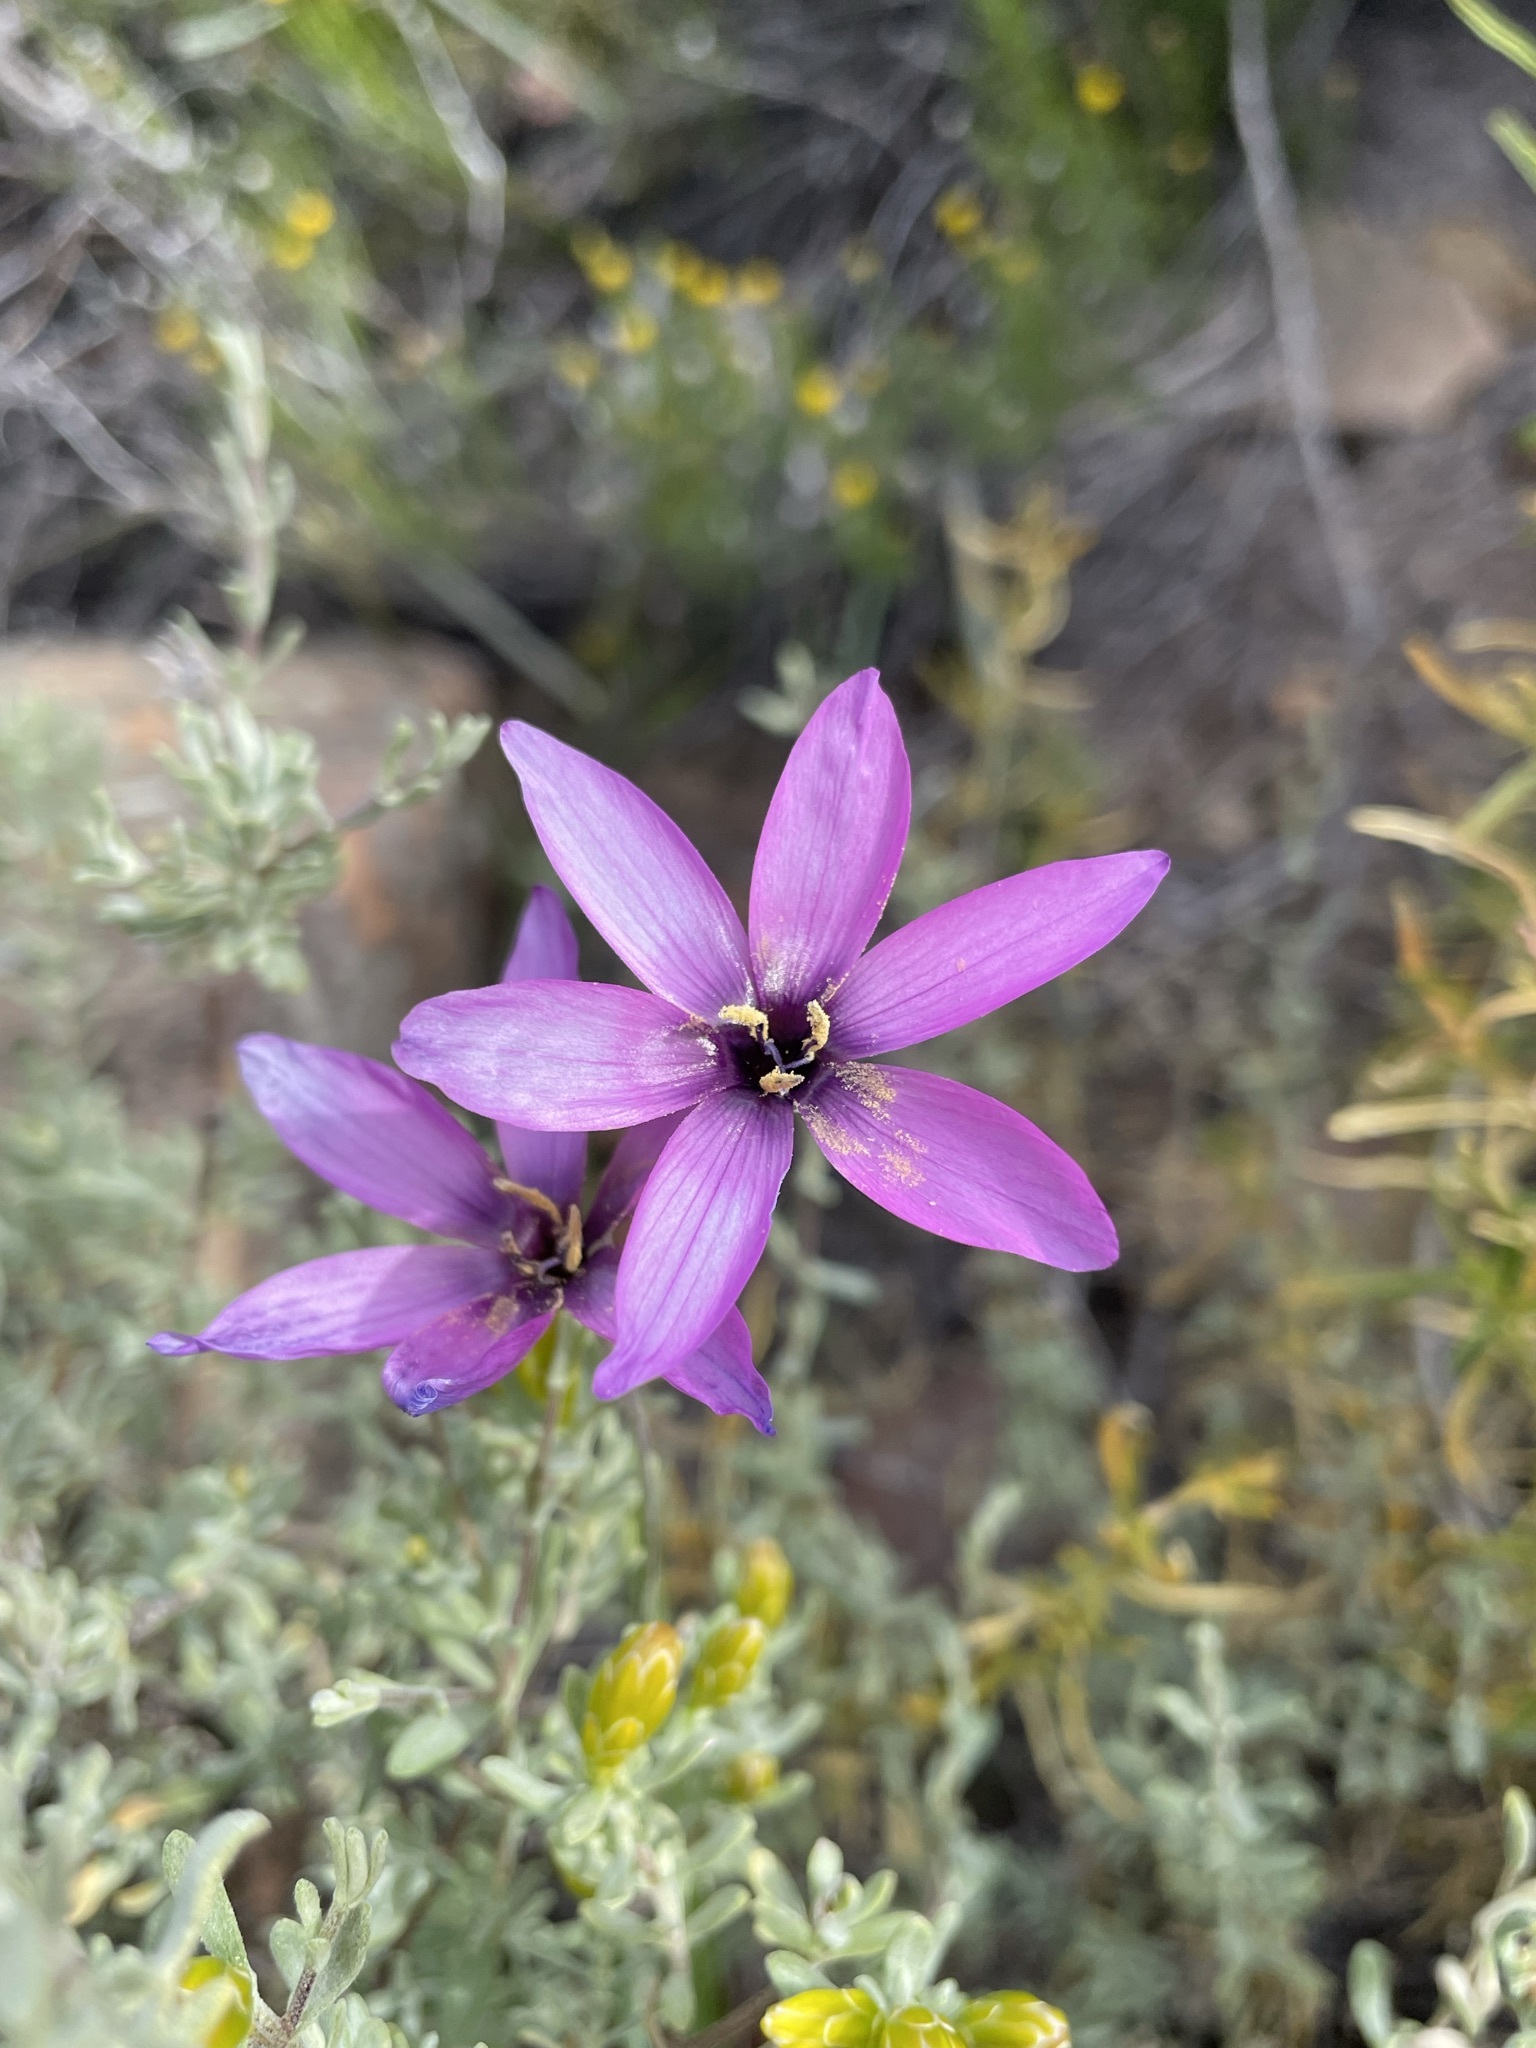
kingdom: Plantae
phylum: Tracheophyta
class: Liliopsida
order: Asparagales
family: Iridaceae
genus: Geissorhiza
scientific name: Geissorhiza cantharophila
